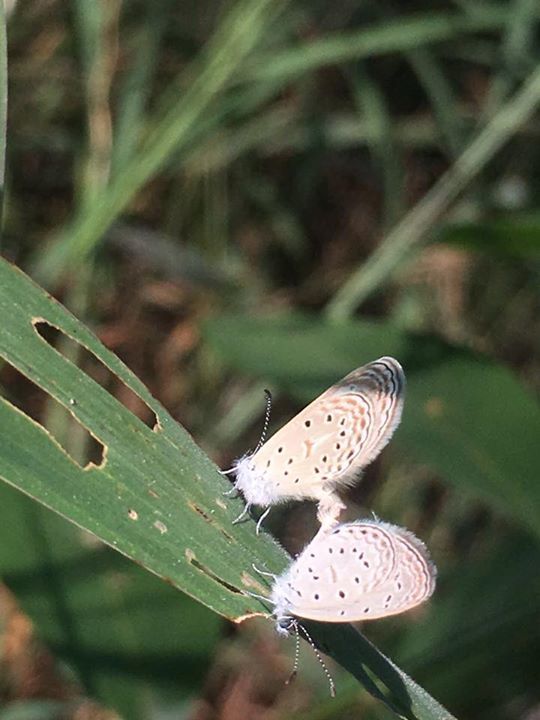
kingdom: Animalia
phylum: Arthropoda
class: Insecta
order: Lepidoptera
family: Lycaenidae
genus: Zizula
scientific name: Zizula hylax
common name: Gaika blue
